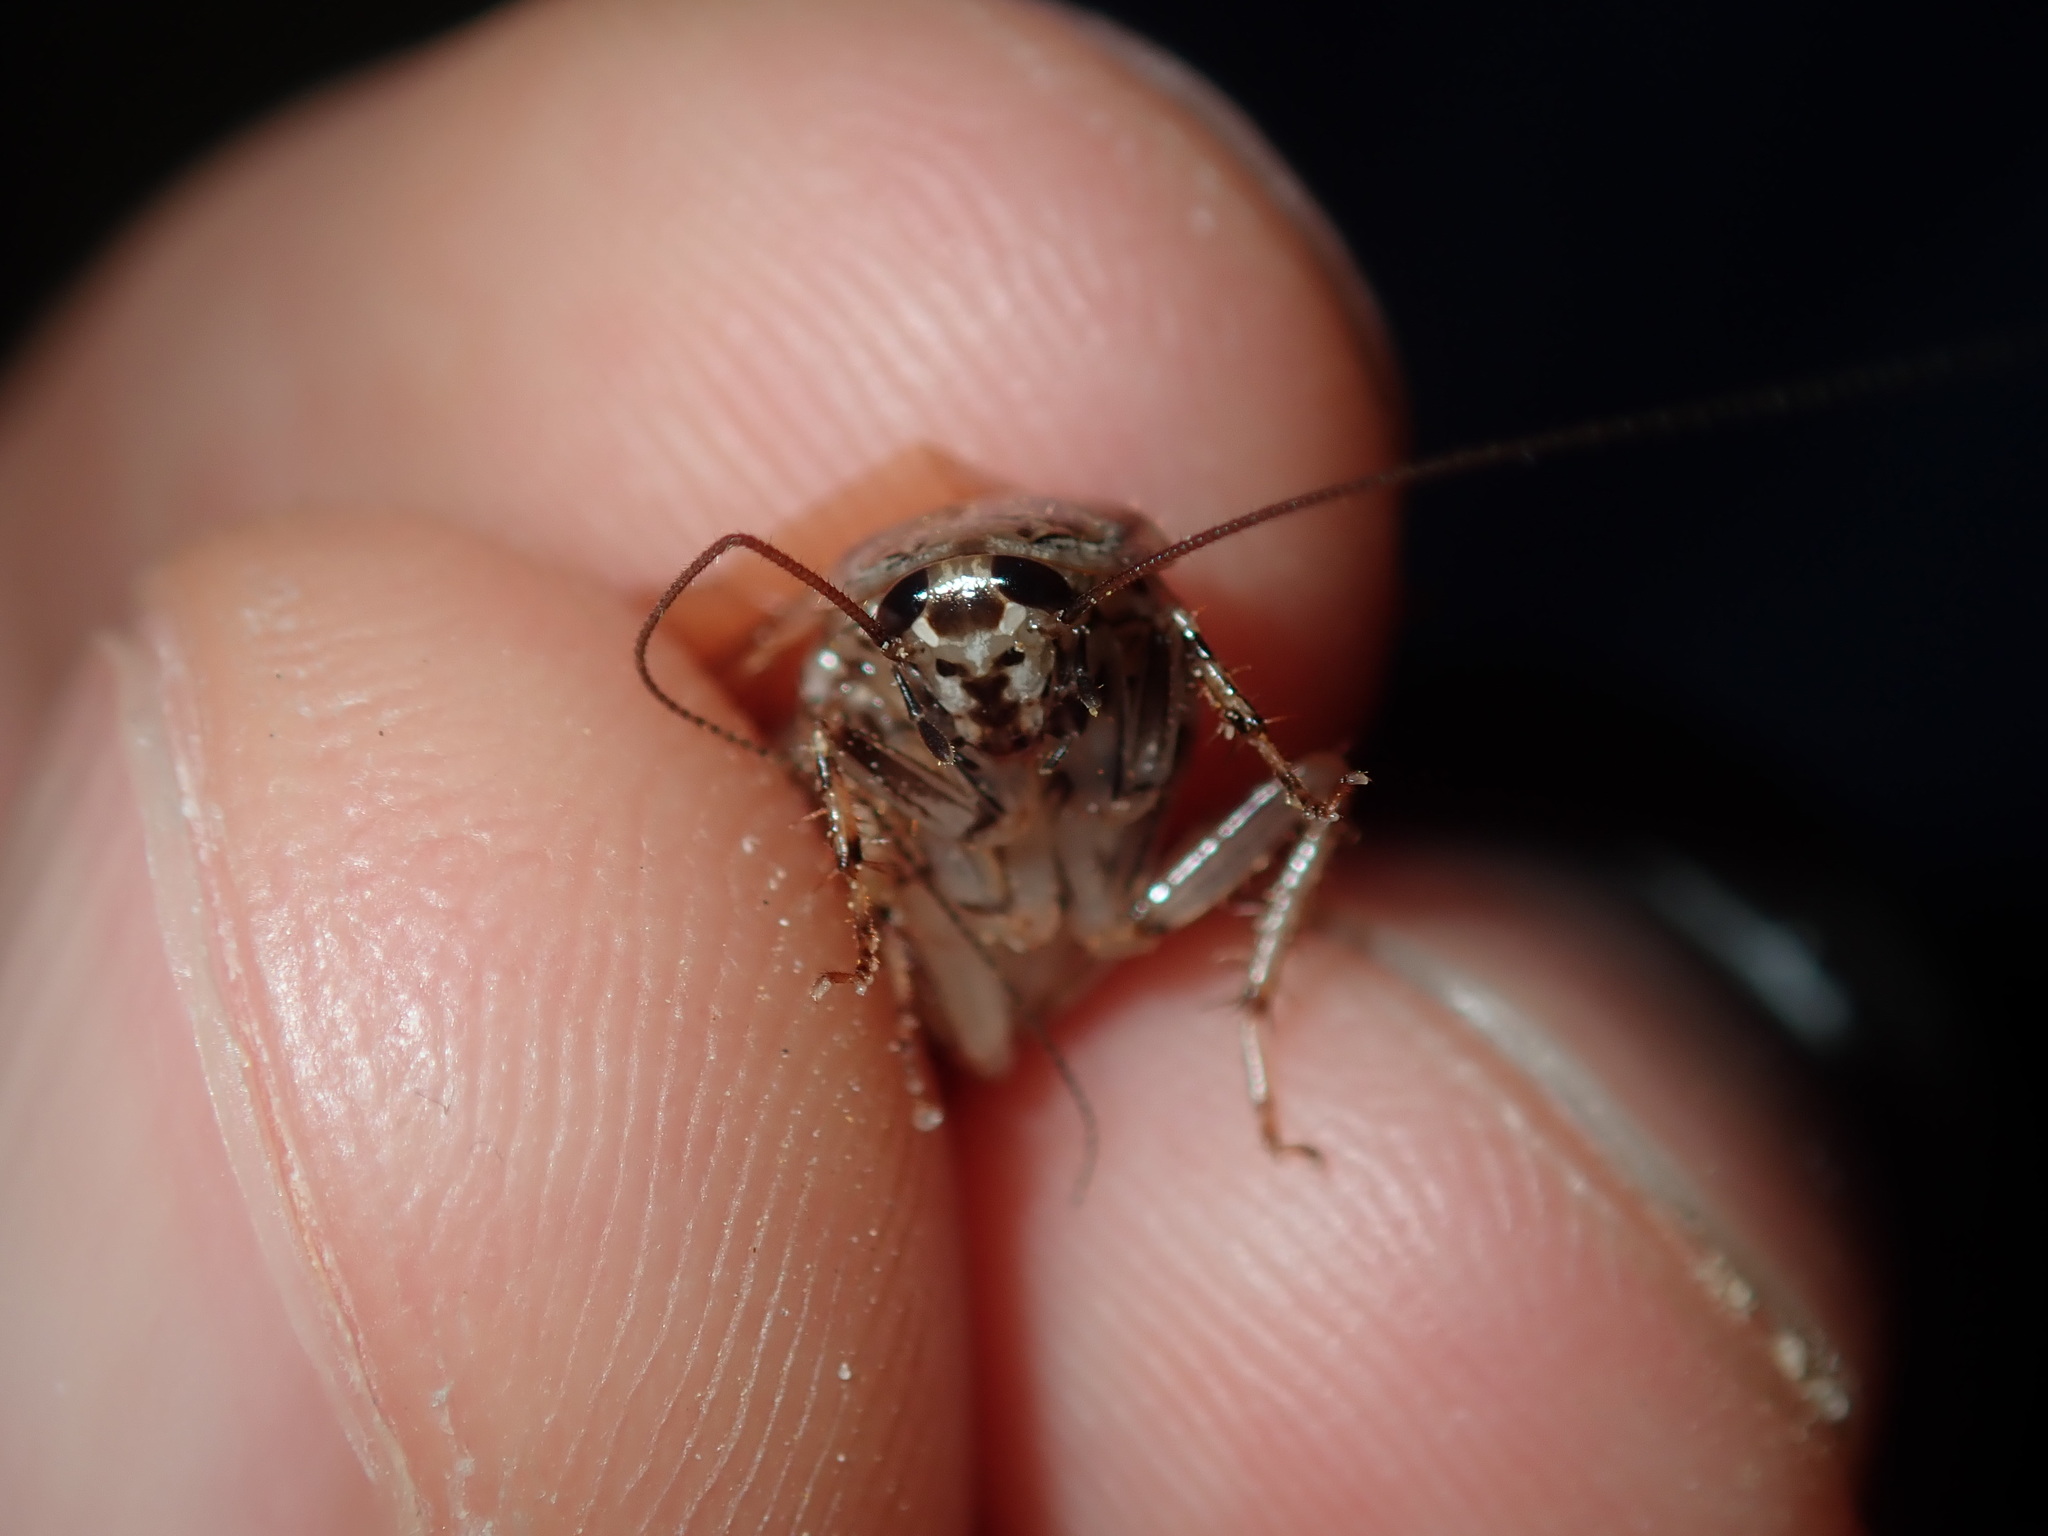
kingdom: Animalia
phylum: Arthropoda
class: Insecta
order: Blattodea
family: Ectobiidae
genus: Johnrehnia
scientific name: Johnrehnia contraria
